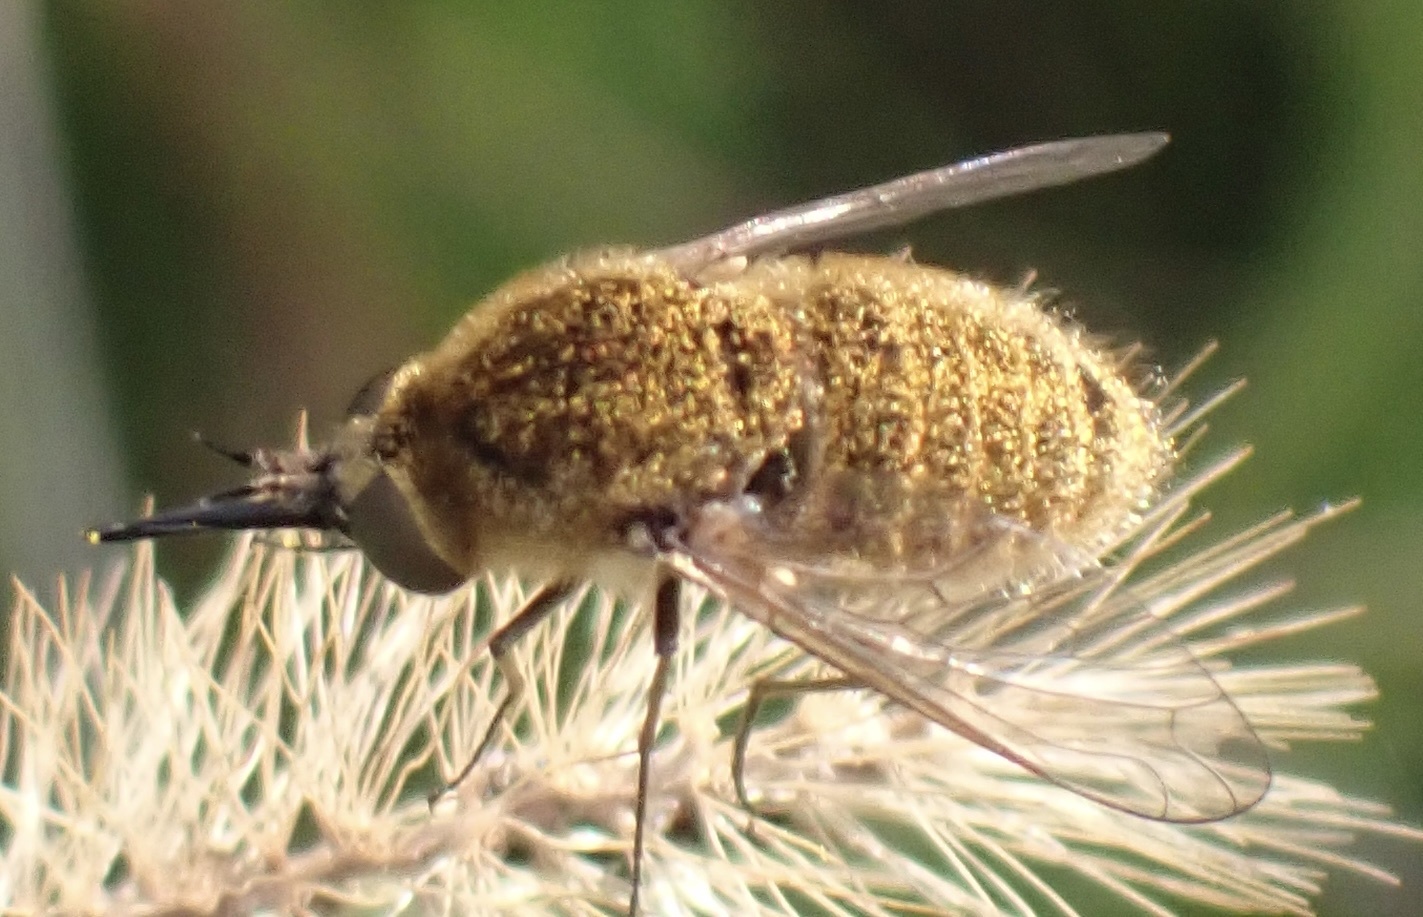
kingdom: Animalia
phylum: Arthropoda
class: Insecta
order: Diptera
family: Bombyliidae
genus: Sparnopolius
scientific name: Sparnopolius confusus
